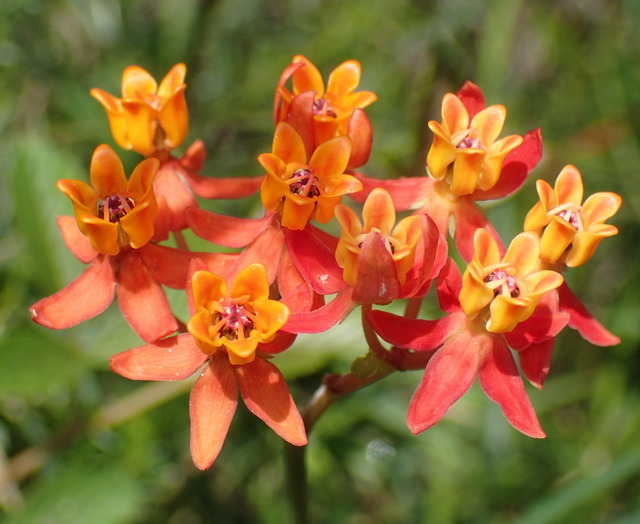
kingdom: Plantae
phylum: Tracheophyta
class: Magnoliopsida
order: Gentianales
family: Apocynaceae
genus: Asclepias
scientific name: Asclepias lanceolata
